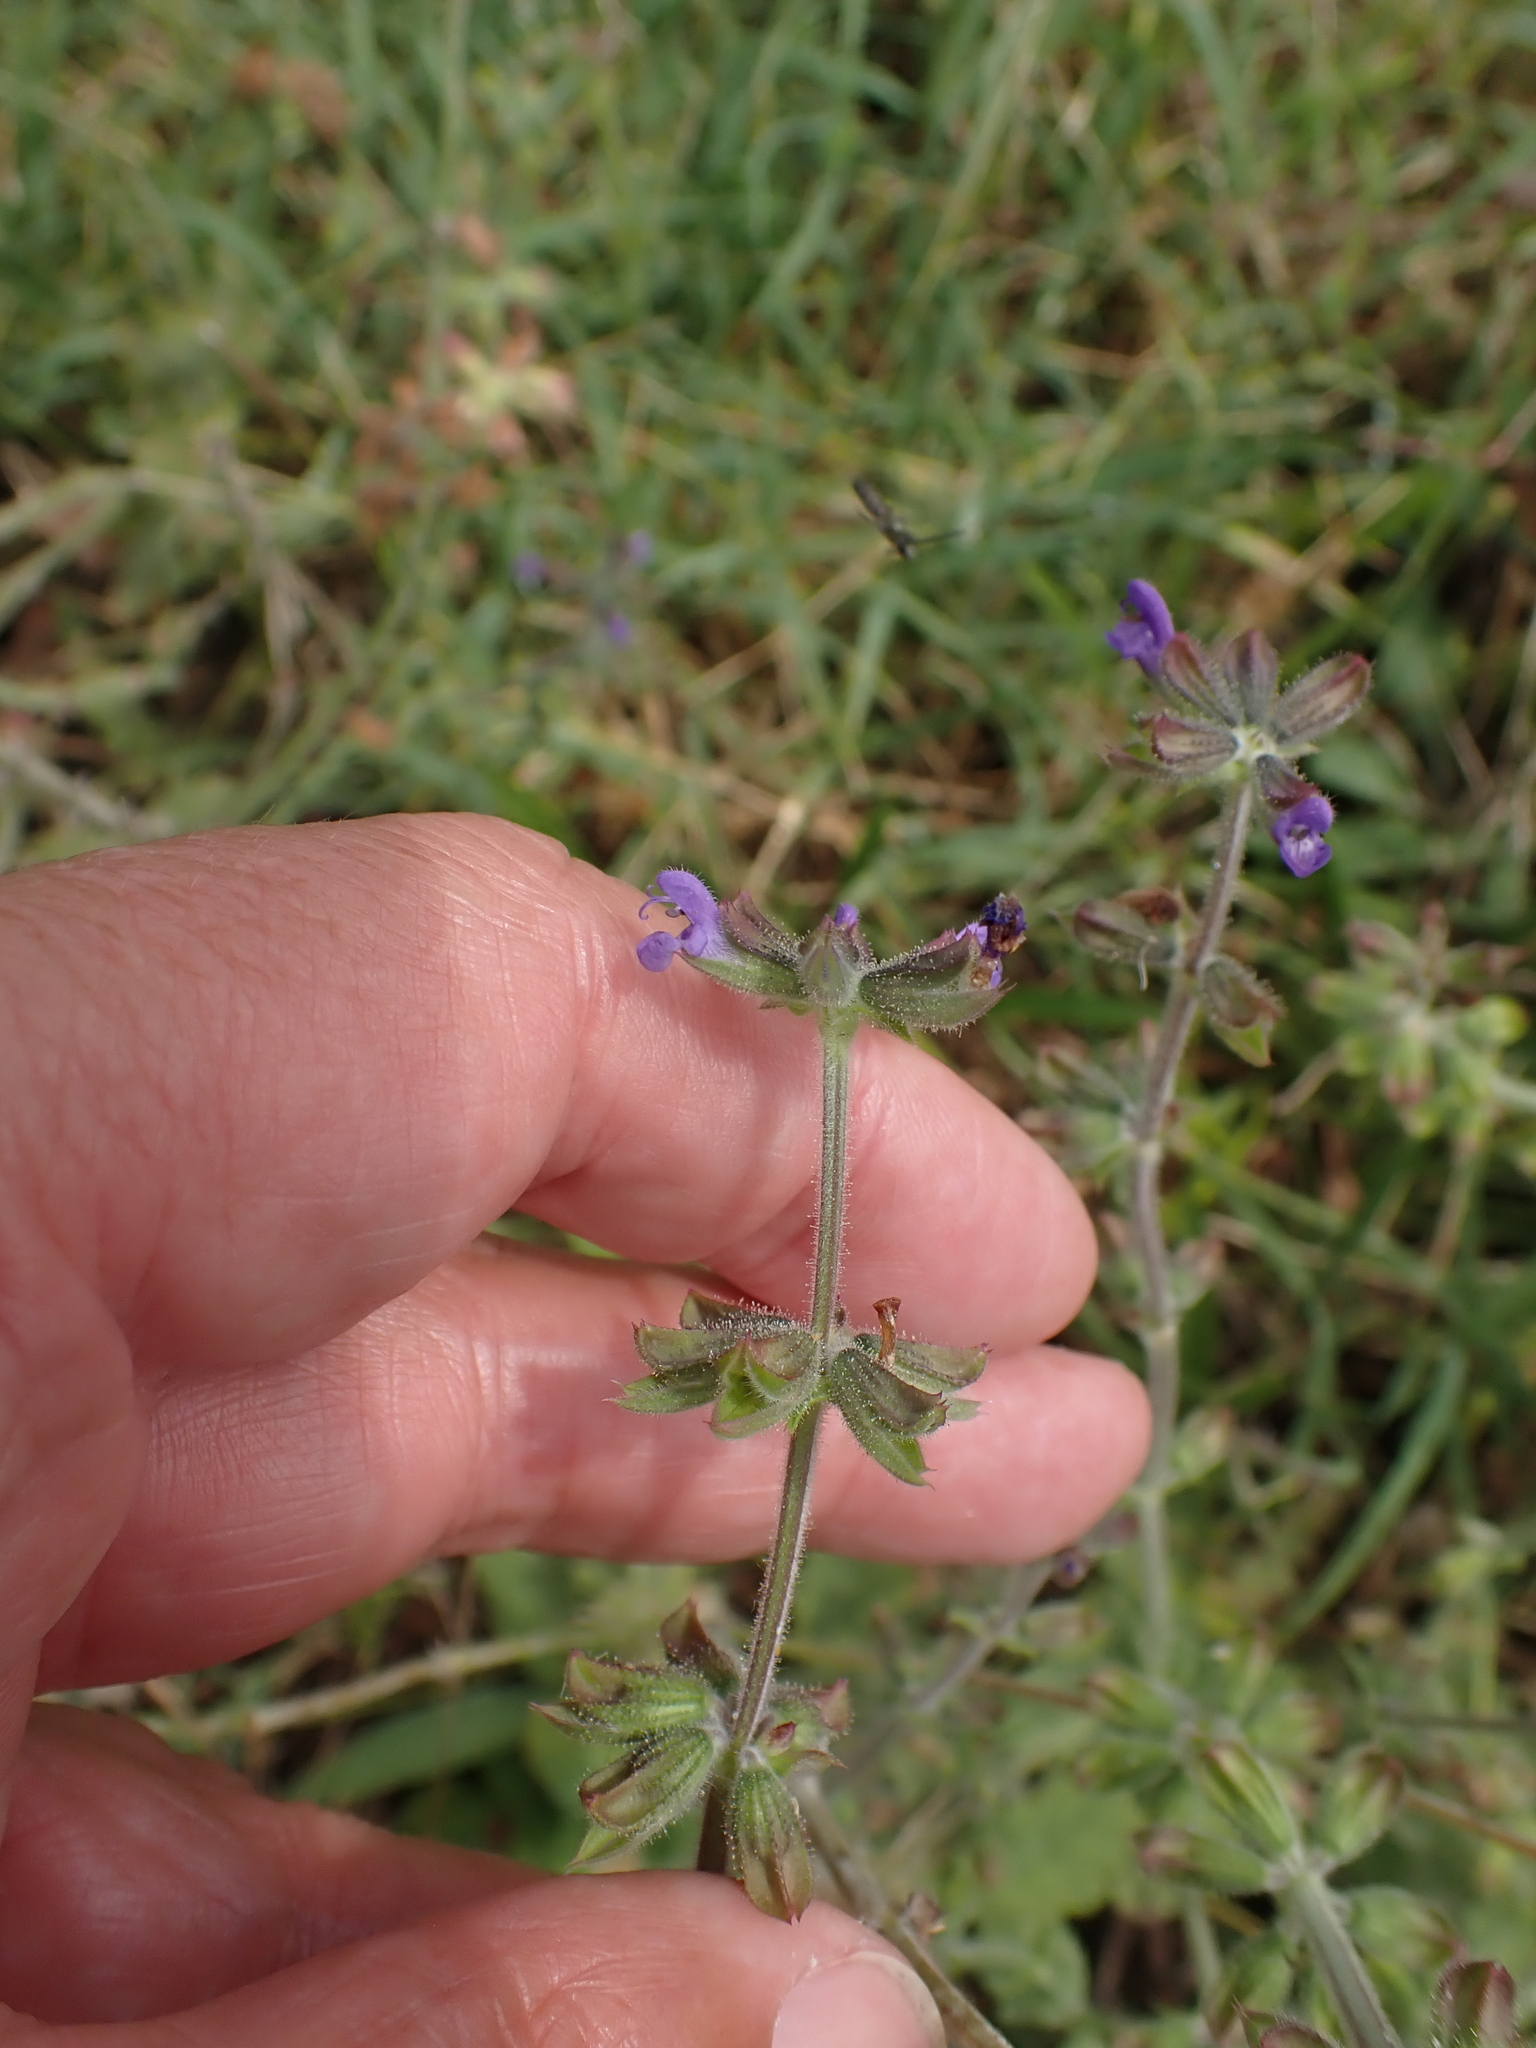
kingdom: Plantae
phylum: Tracheophyta
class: Magnoliopsida
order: Lamiales
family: Lamiaceae
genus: Salvia
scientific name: Salvia verbenaca
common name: Wild clary
